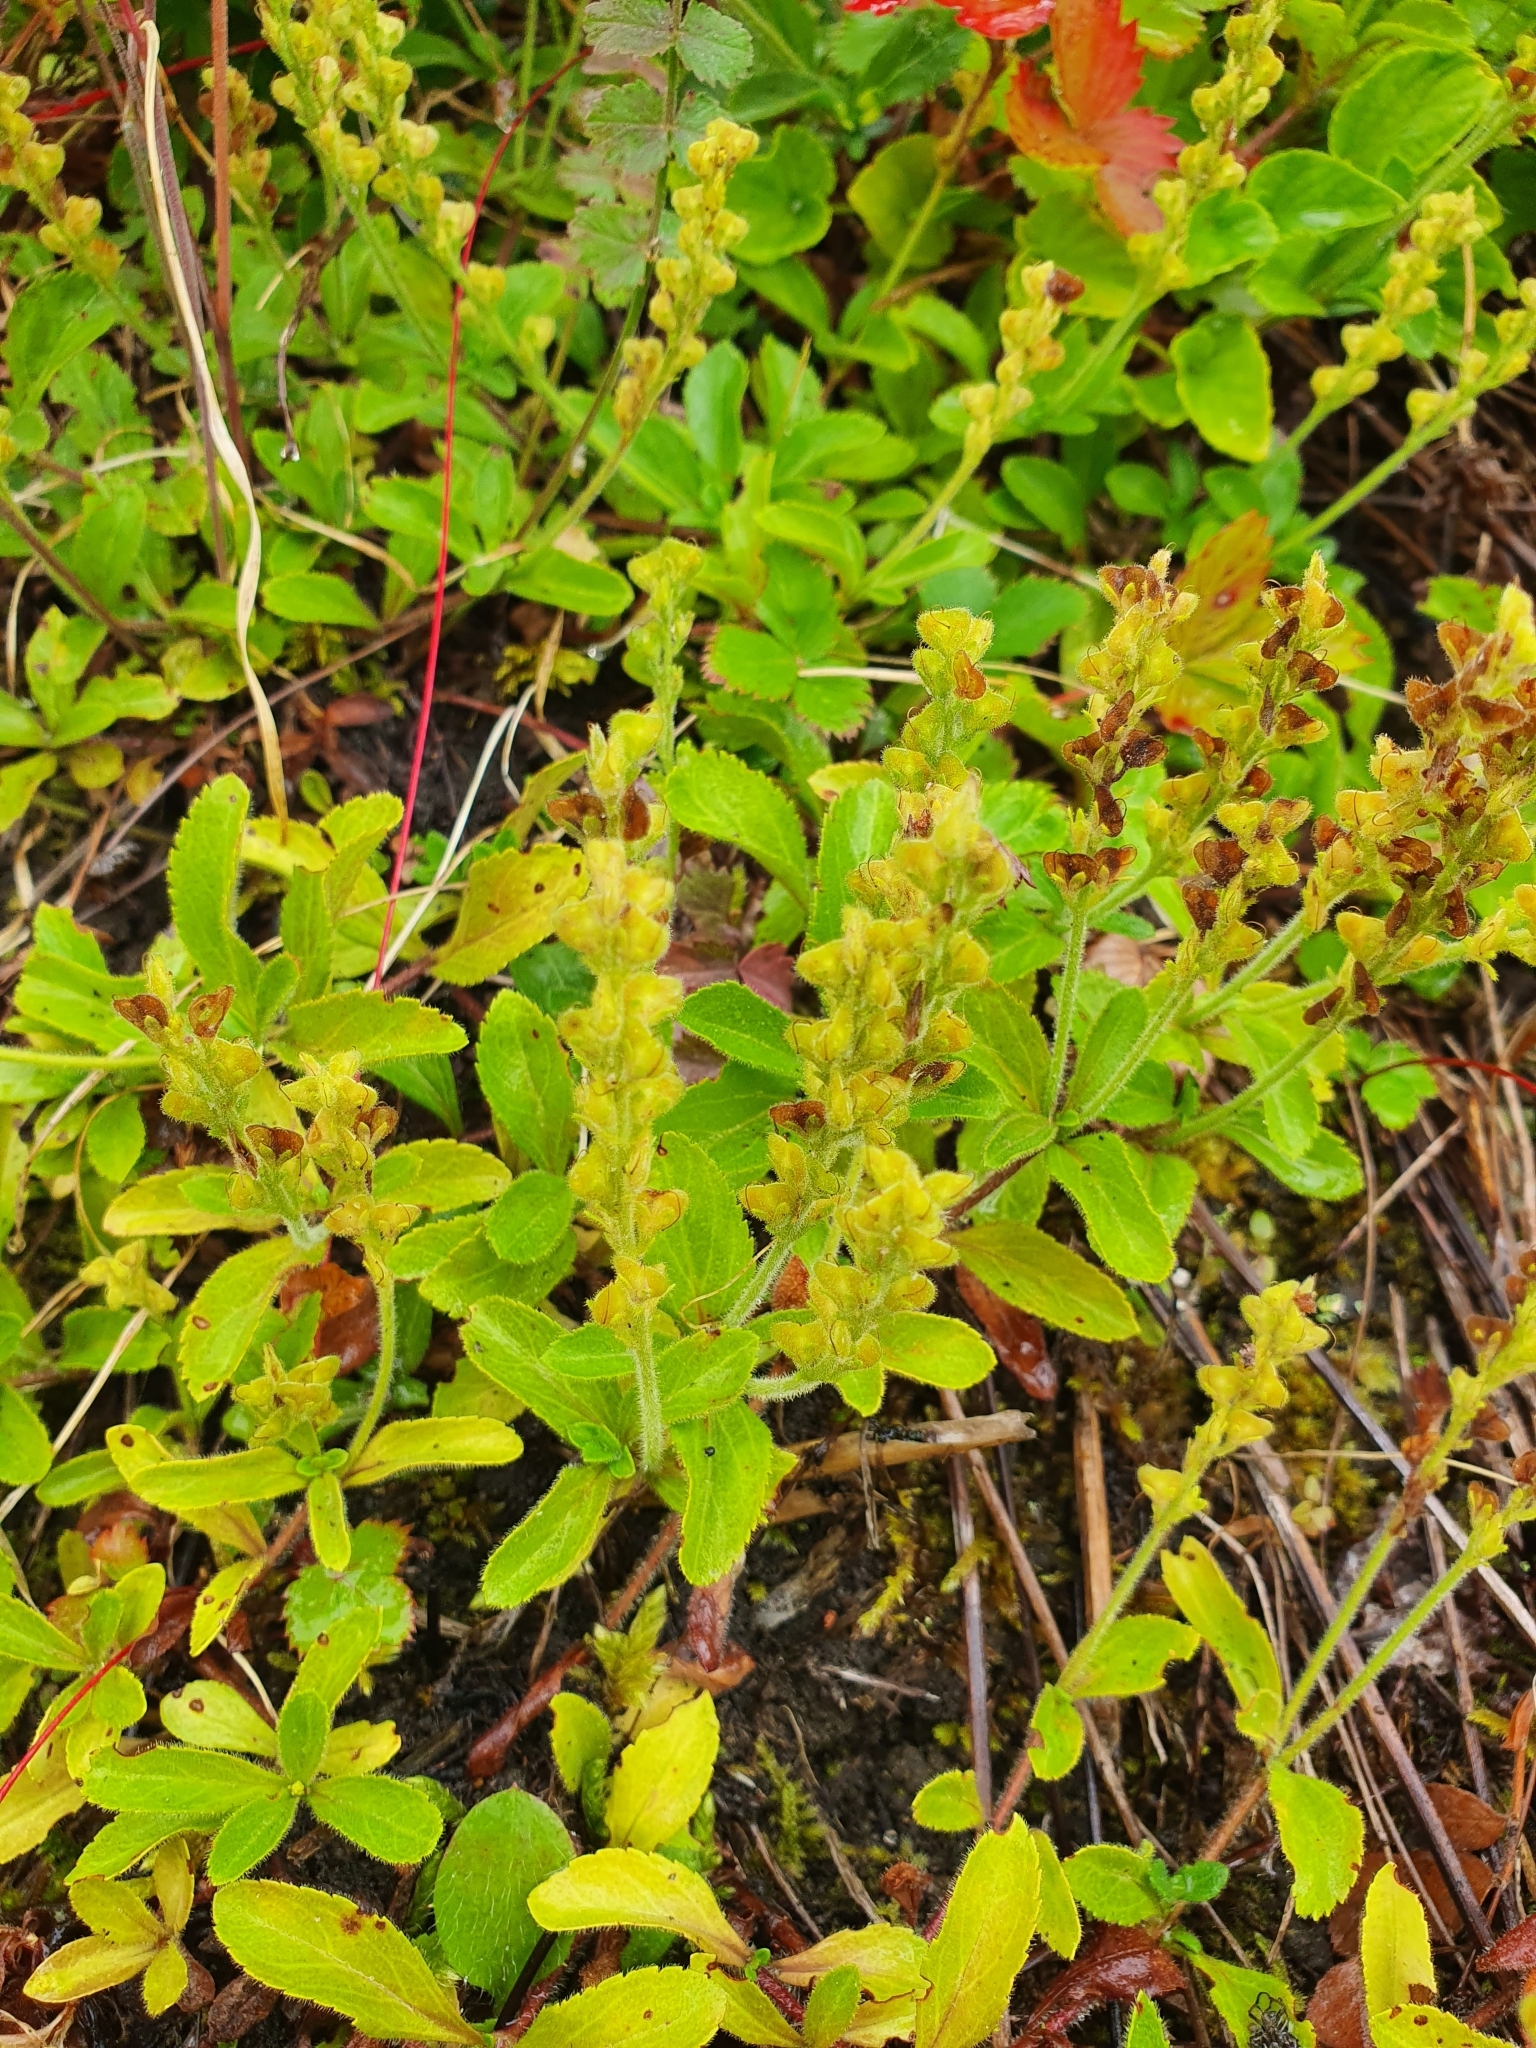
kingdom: Plantae
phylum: Tracheophyta
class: Magnoliopsida
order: Lamiales
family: Plantaginaceae
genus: Veronica
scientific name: Veronica officinalis
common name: Common speedwell
